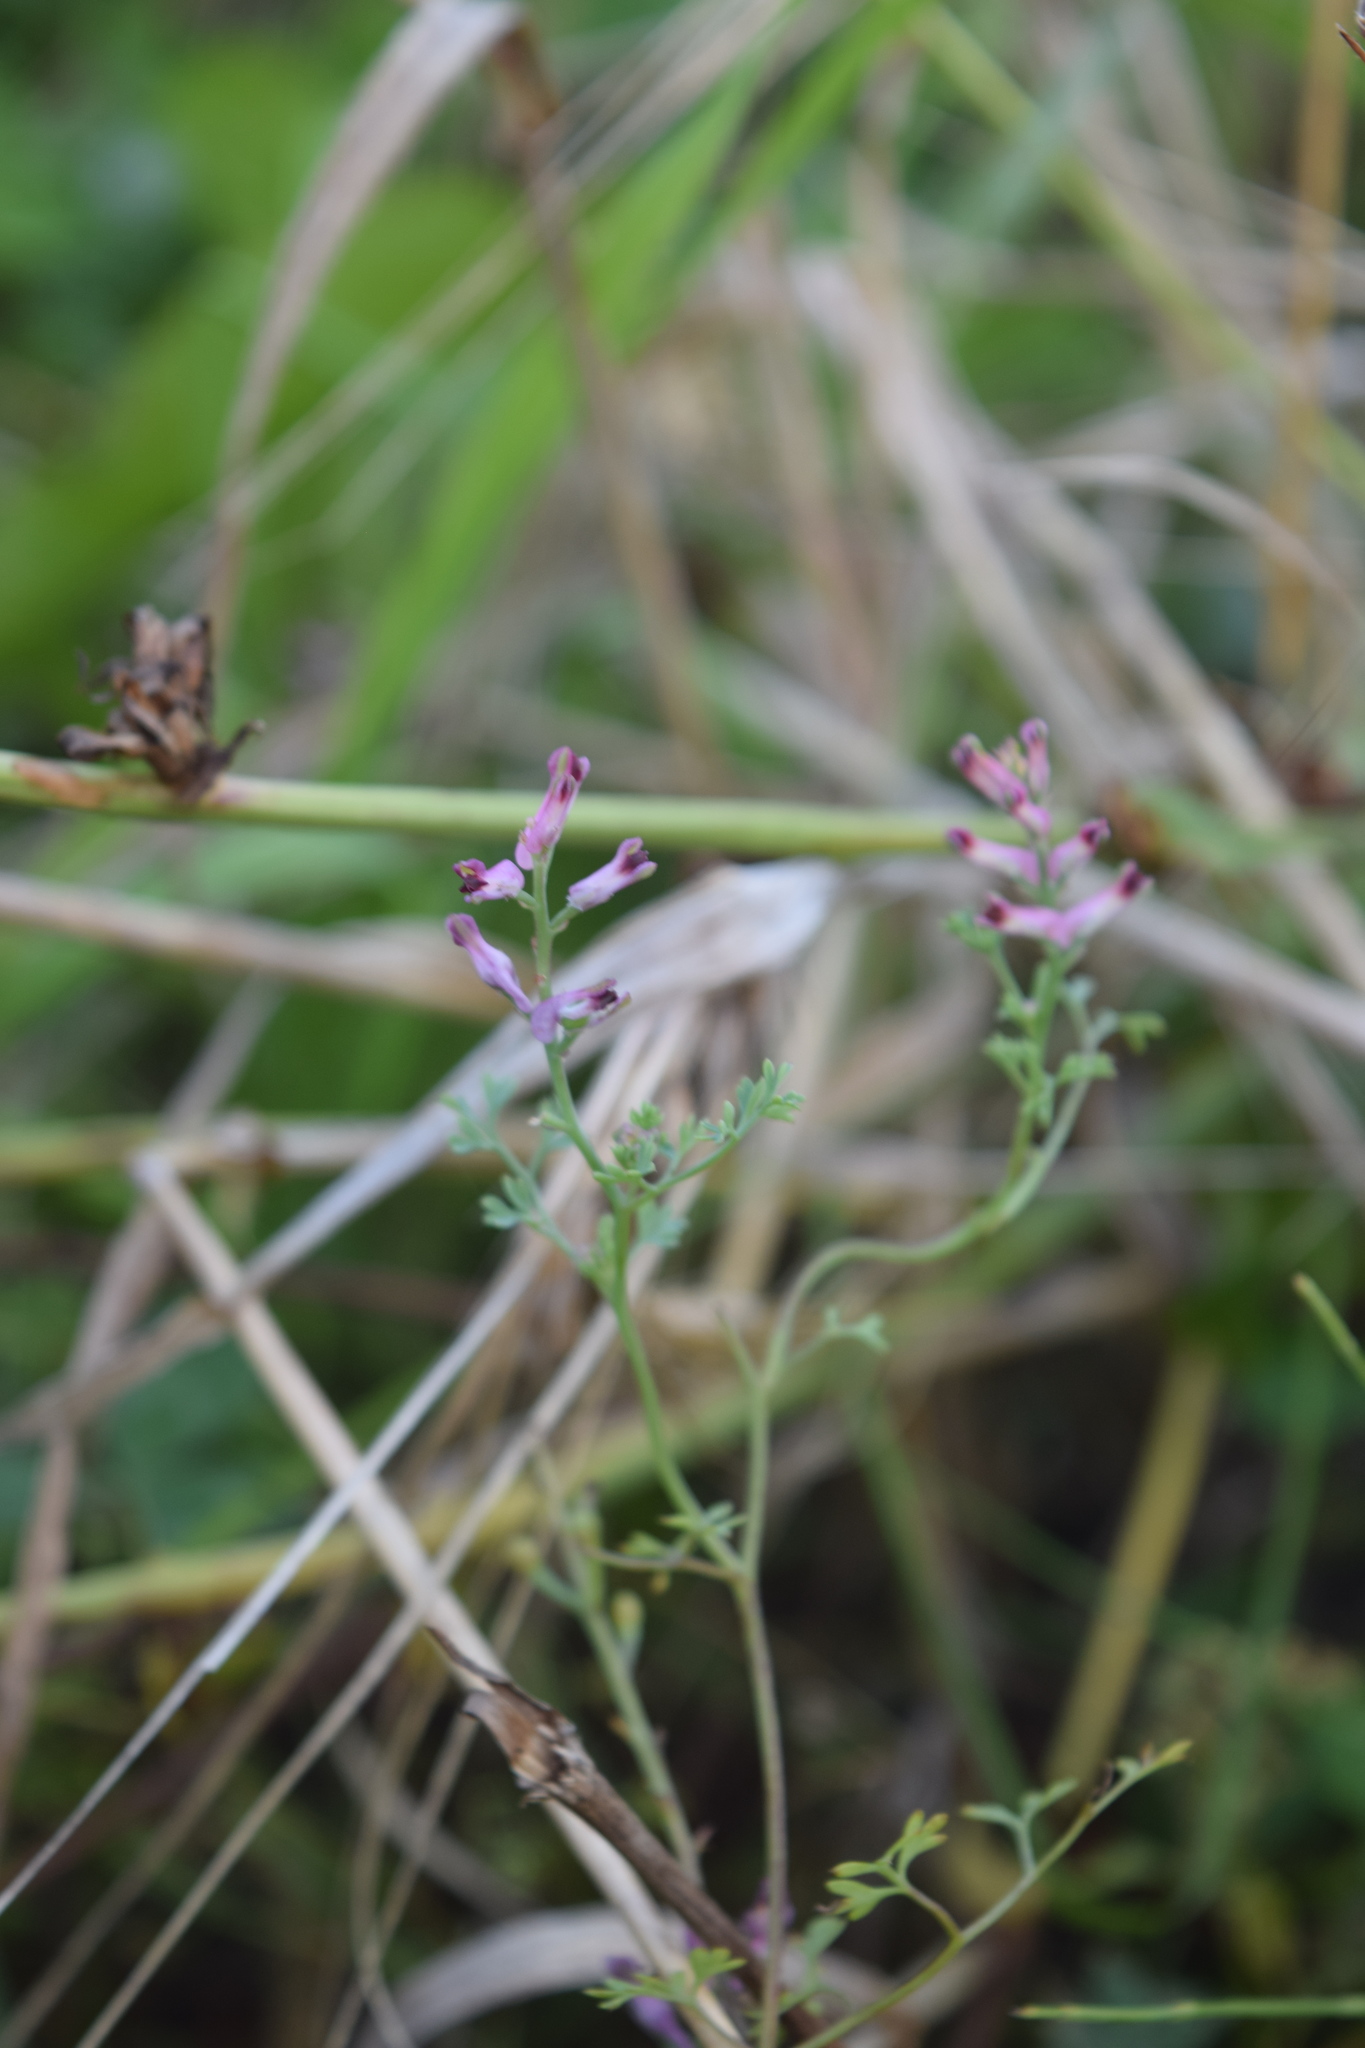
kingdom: Plantae
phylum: Tracheophyta
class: Magnoliopsida
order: Ranunculales
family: Papaveraceae
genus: Fumaria
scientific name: Fumaria officinalis
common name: Common fumitory
